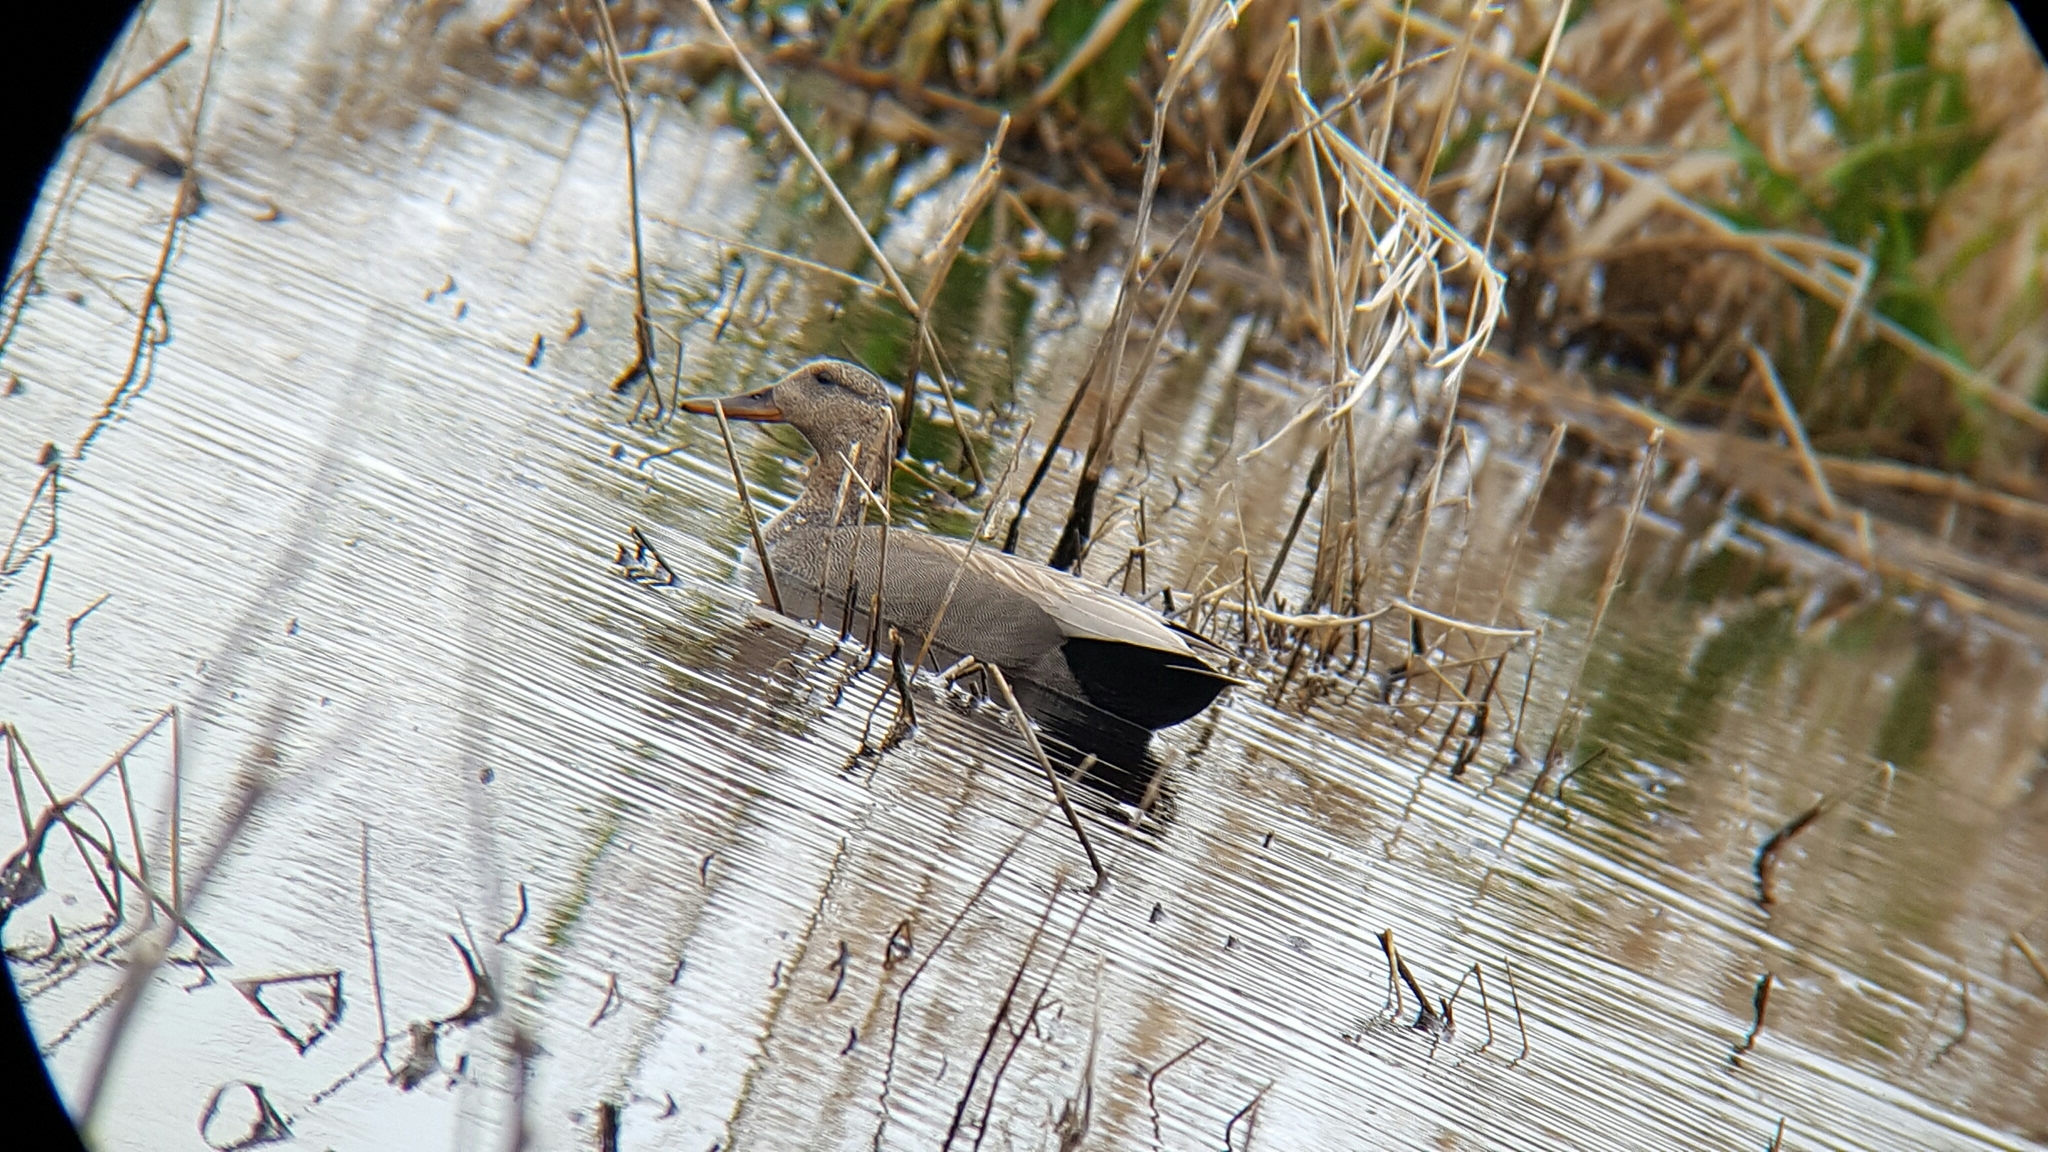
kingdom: Animalia
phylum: Chordata
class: Aves
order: Anseriformes
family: Anatidae
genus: Mareca
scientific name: Mareca strepera
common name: Gadwall
